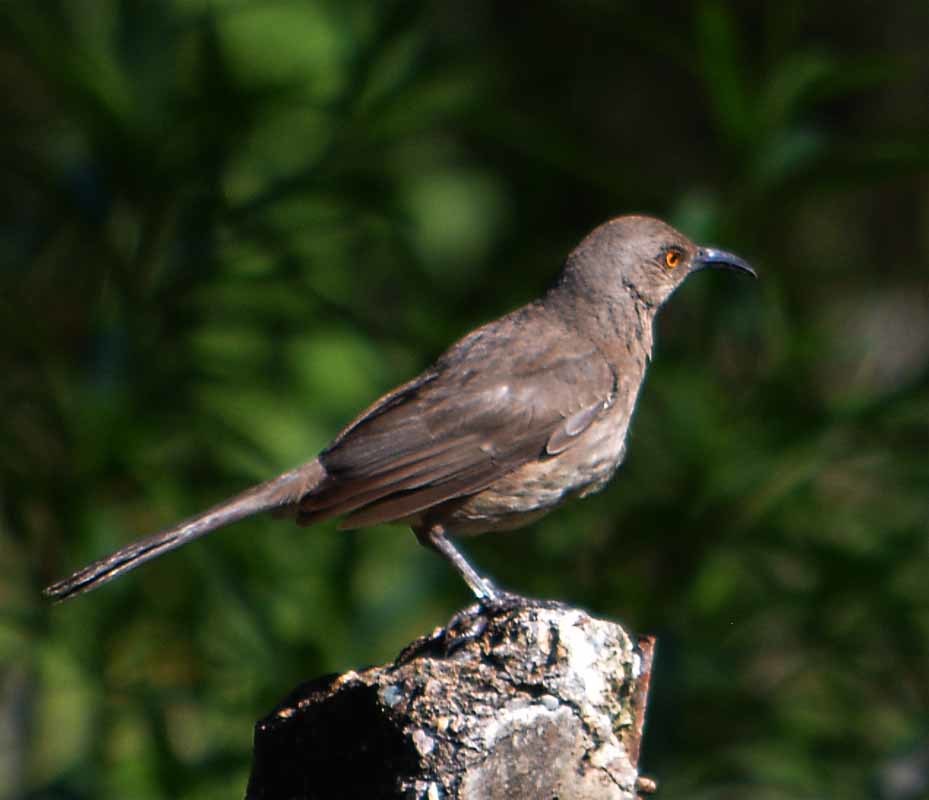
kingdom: Animalia
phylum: Chordata
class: Aves
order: Passeriformes
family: Mimidae
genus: Toxostoma
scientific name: Toxostoma curvirostre
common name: Curve-billed thrasher
